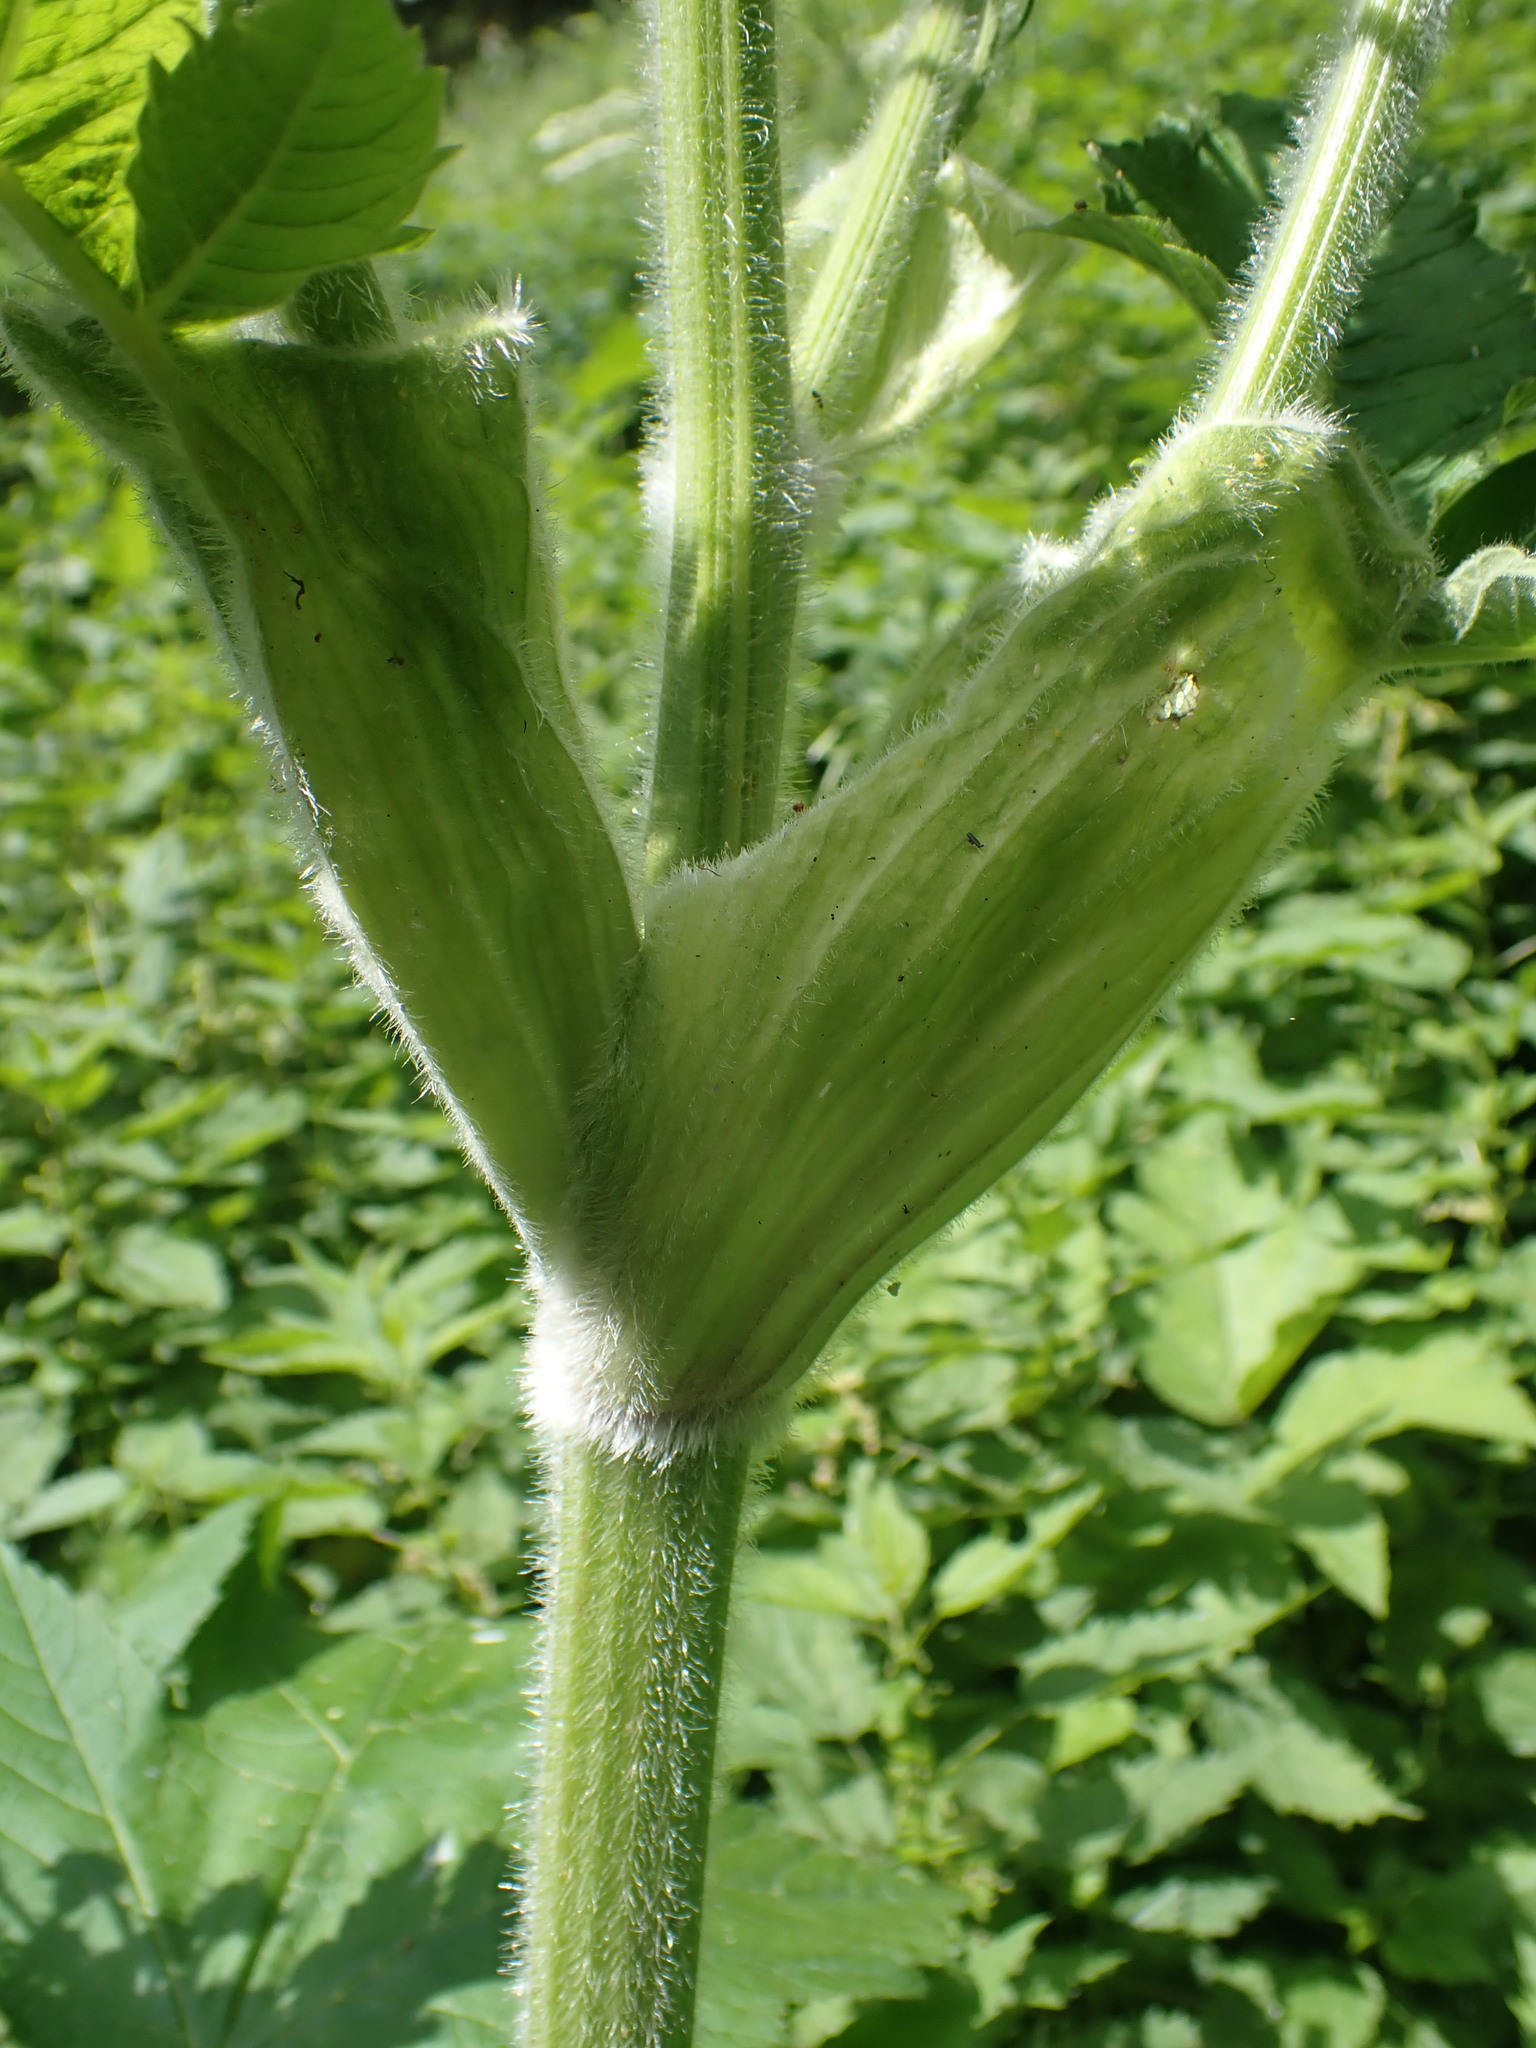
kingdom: Plantae
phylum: Tracheophyta
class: Magnoliopsida
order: Apiales
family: Apiaceae
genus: Heracleum
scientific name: Heracleum maximum
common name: American cow parsnip
